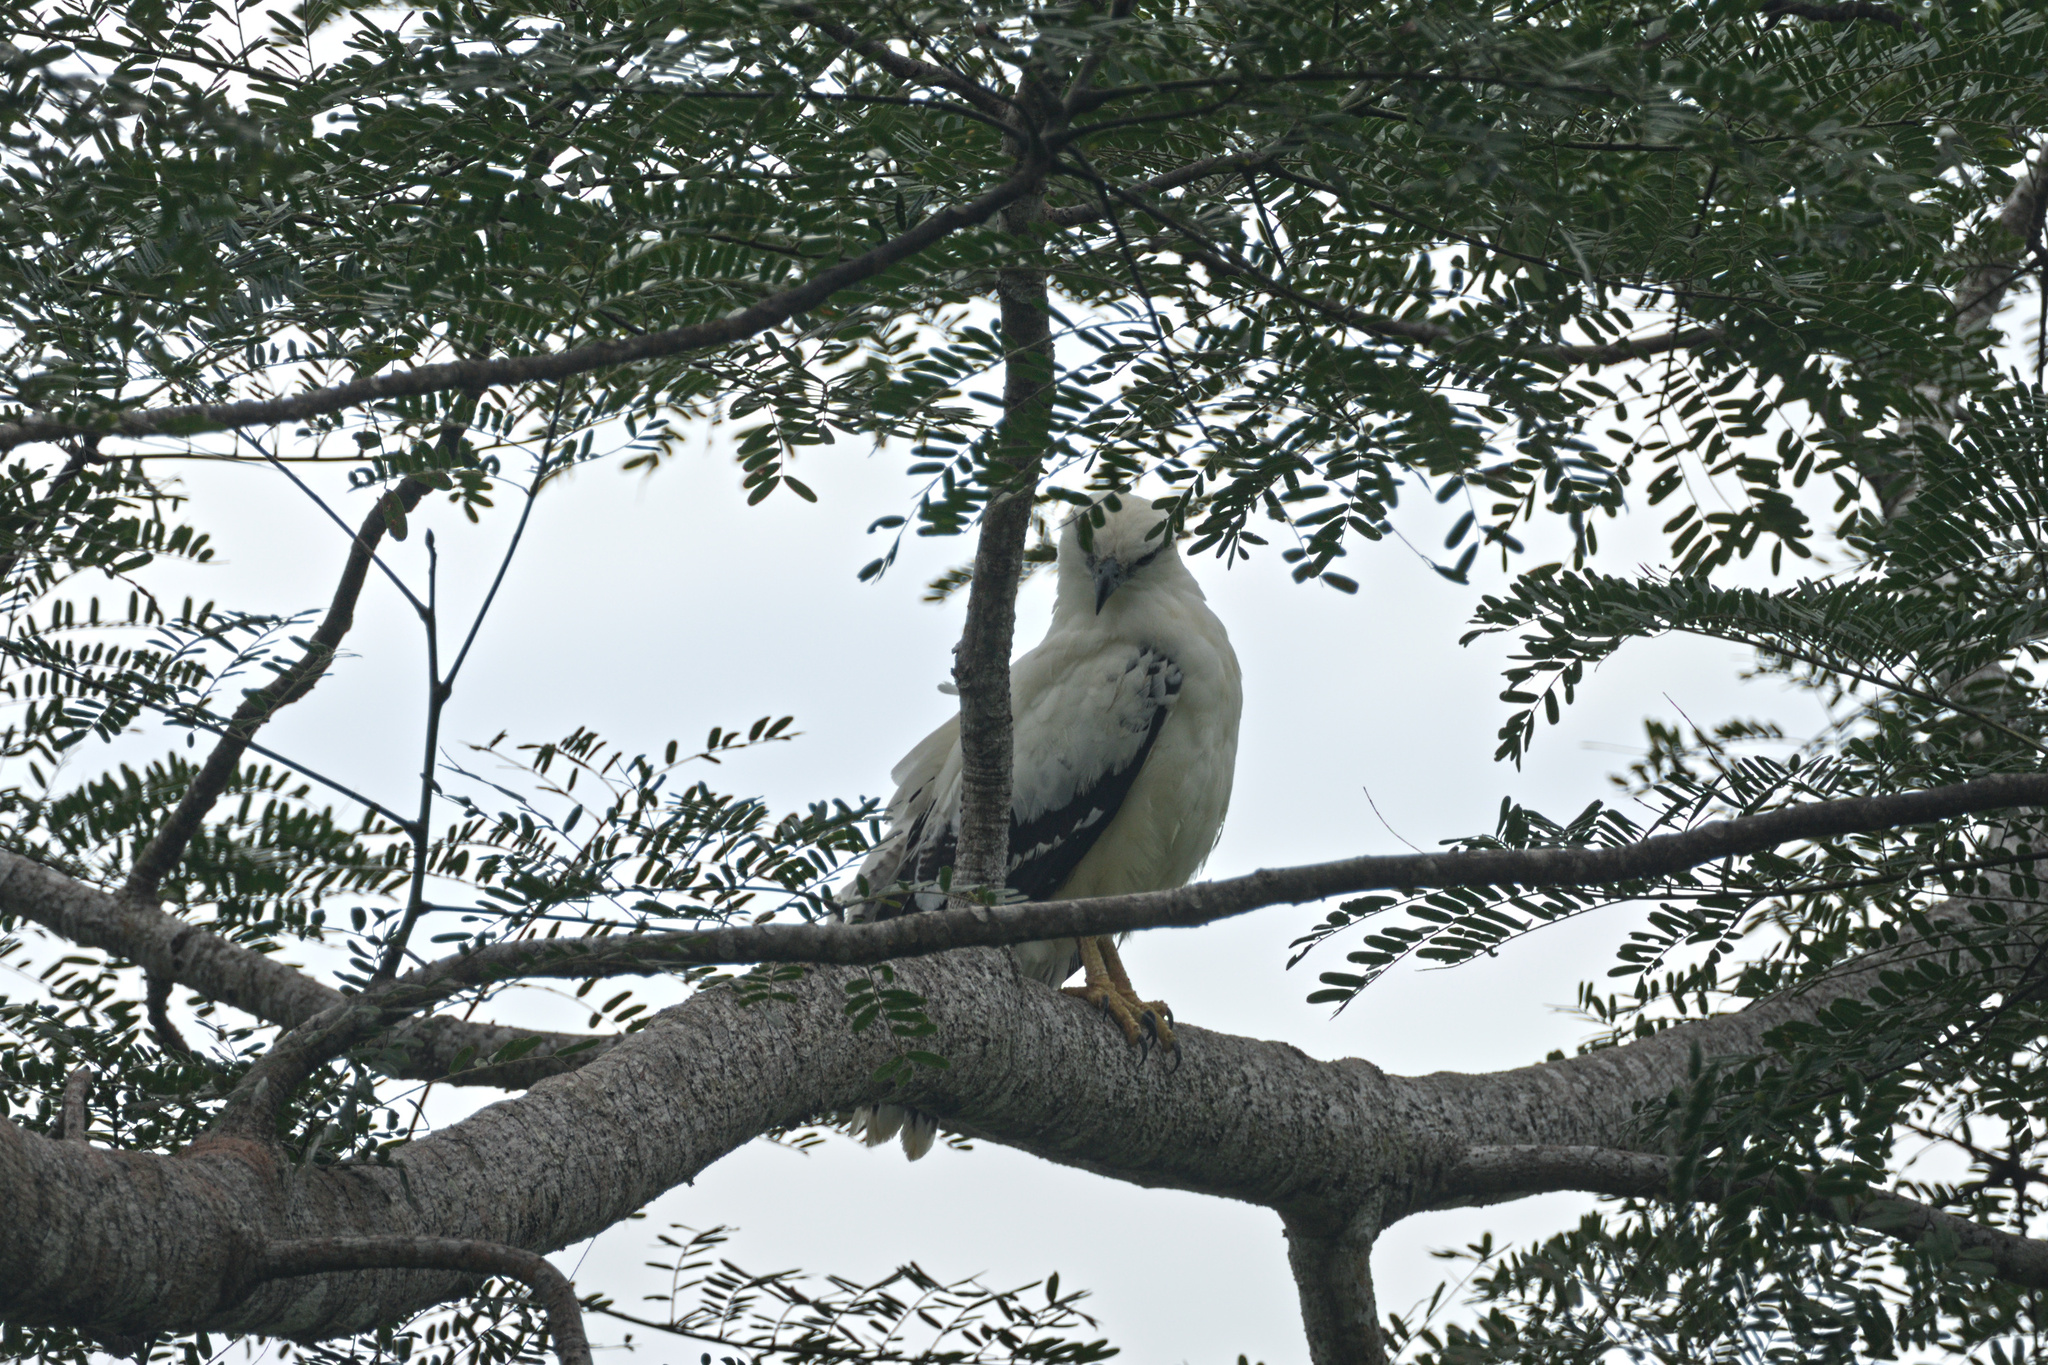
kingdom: Animalia
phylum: Chordata
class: Aves
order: Accipitriformes
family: Accipitridae
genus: Leucopternis
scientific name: Leucopternis albicollis
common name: White hawk
